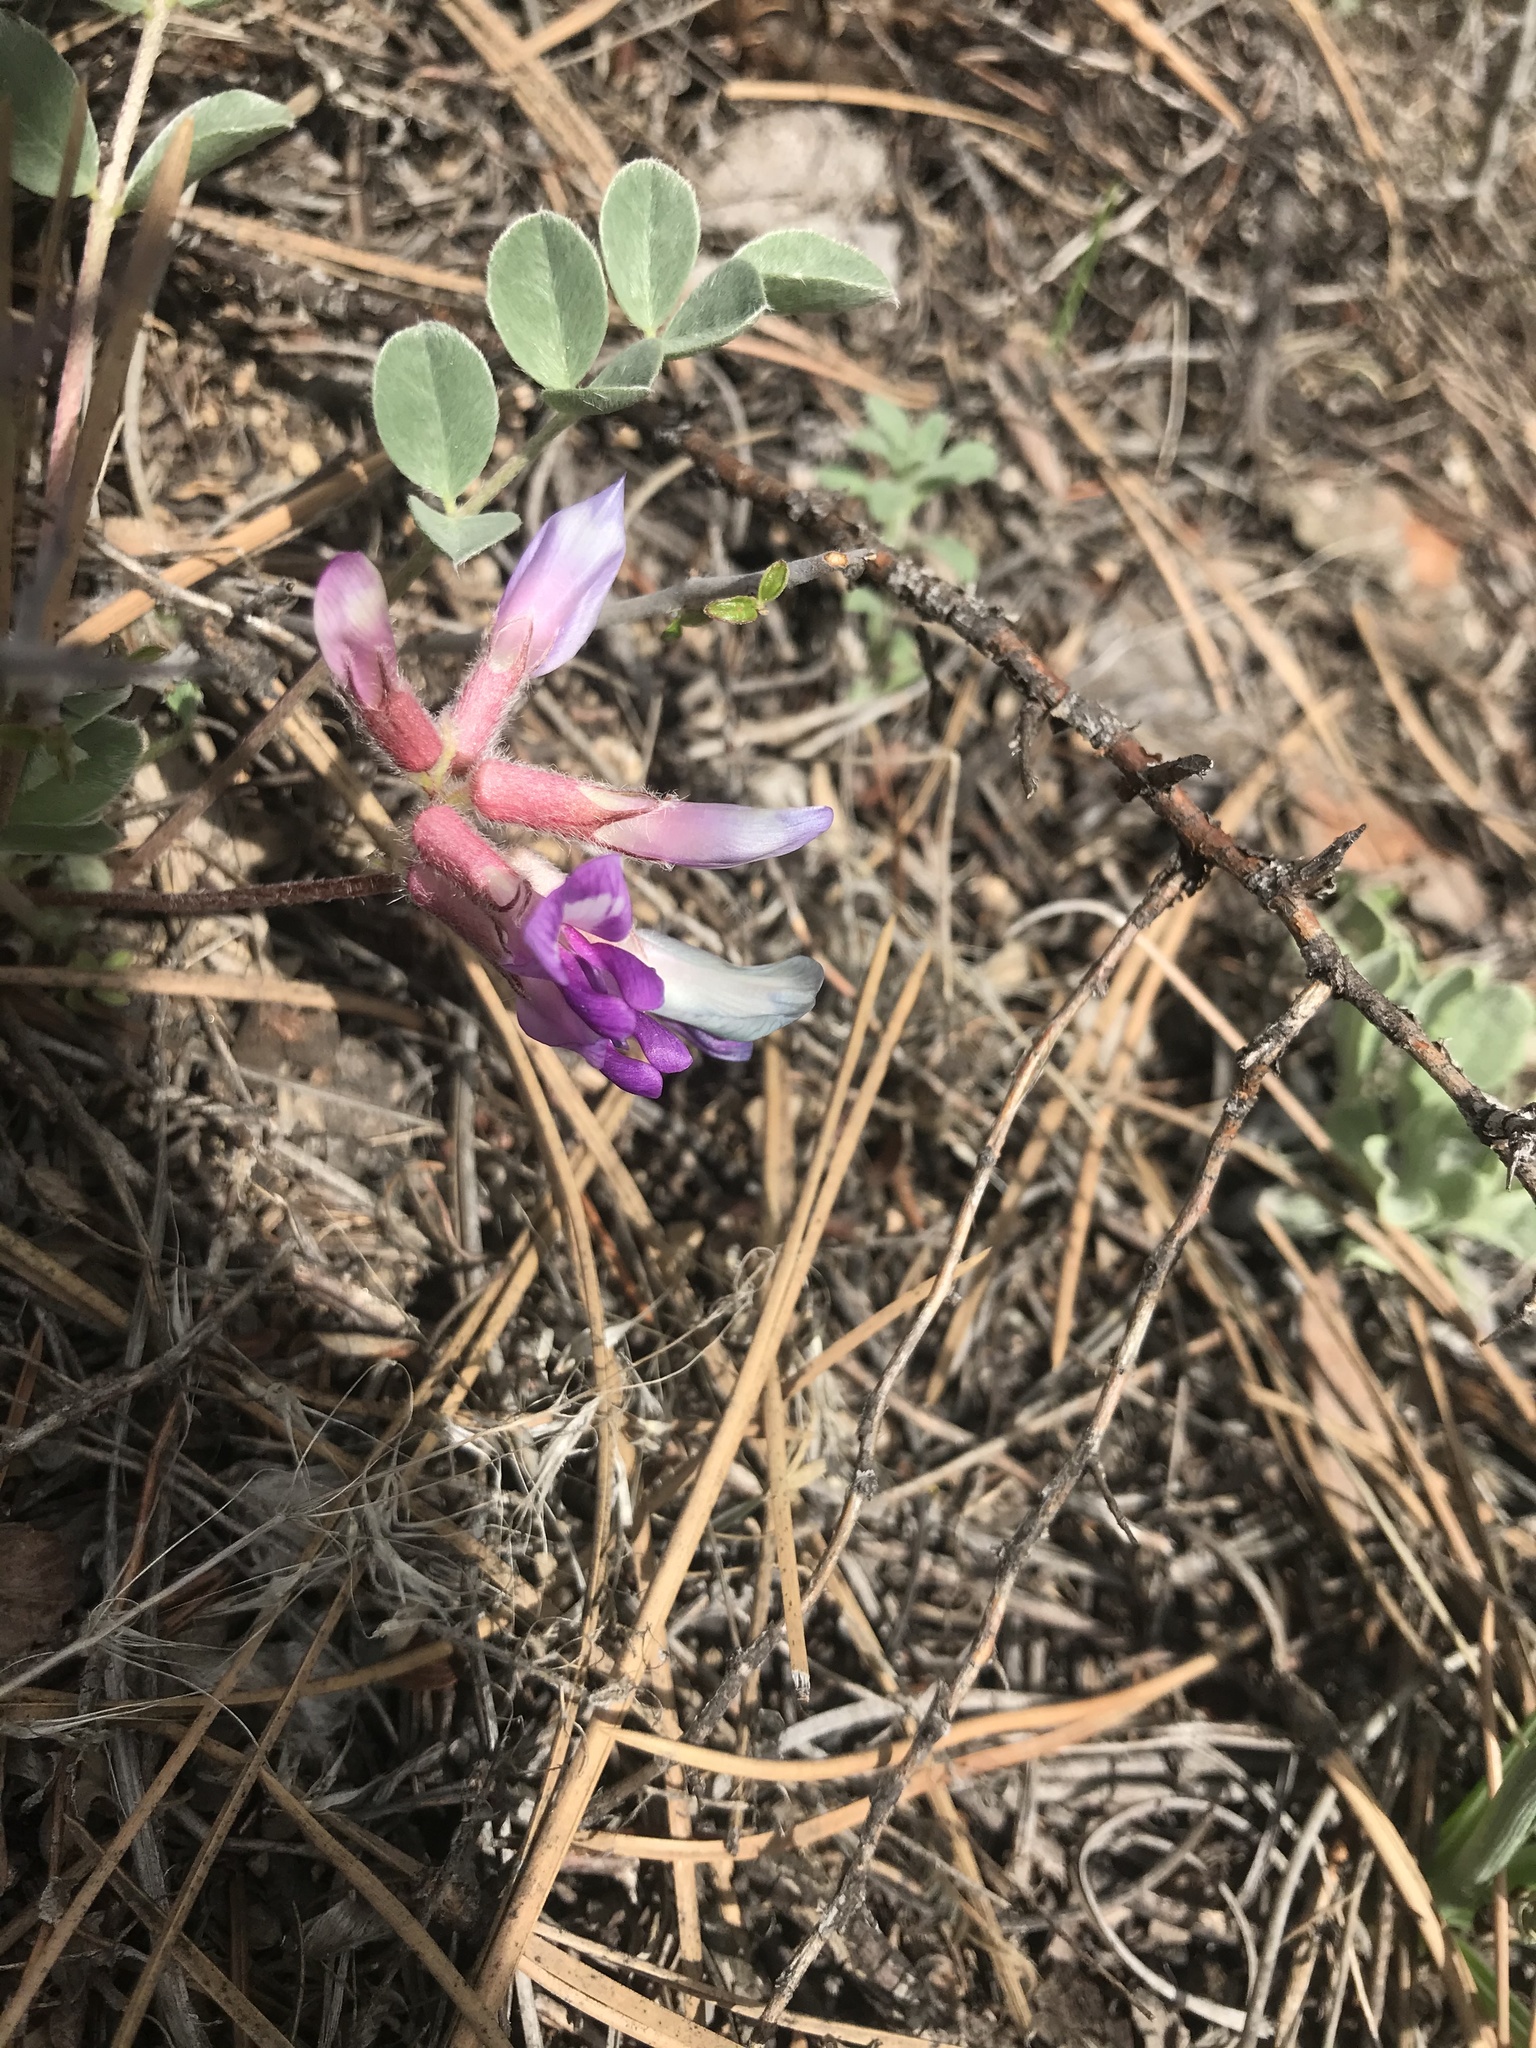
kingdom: Plantae
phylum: Tracheophyta
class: Magnoliopsida
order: Fabales
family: Fabaceae
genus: Astragalus
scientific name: Astragalus shortianus
